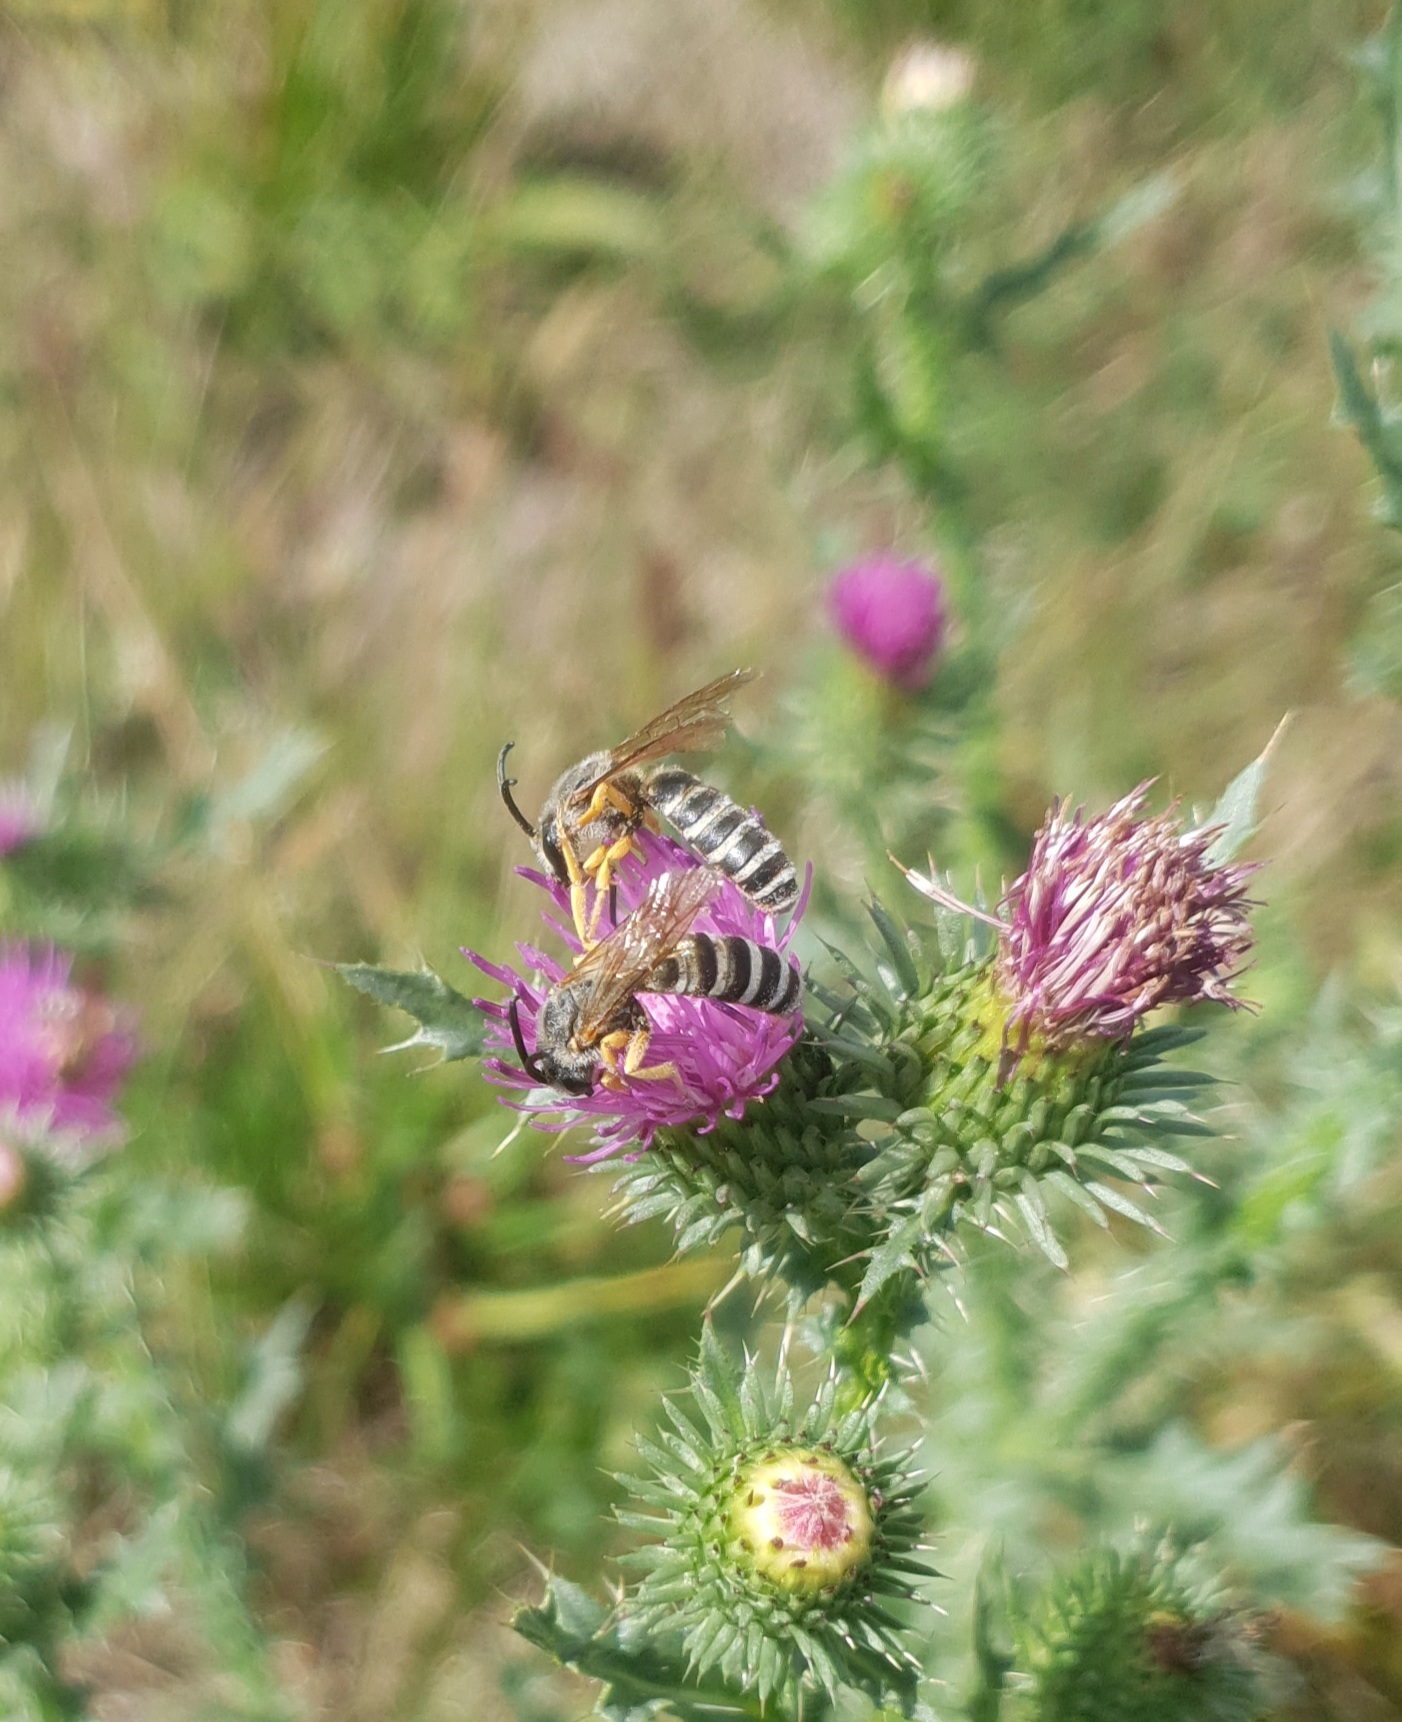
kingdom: Animalia
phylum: Arthropoda
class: Insecta
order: Hymenoptera
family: Halictidae
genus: Halictus
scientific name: Halictus scabiosae
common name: Great banded furrow bee
